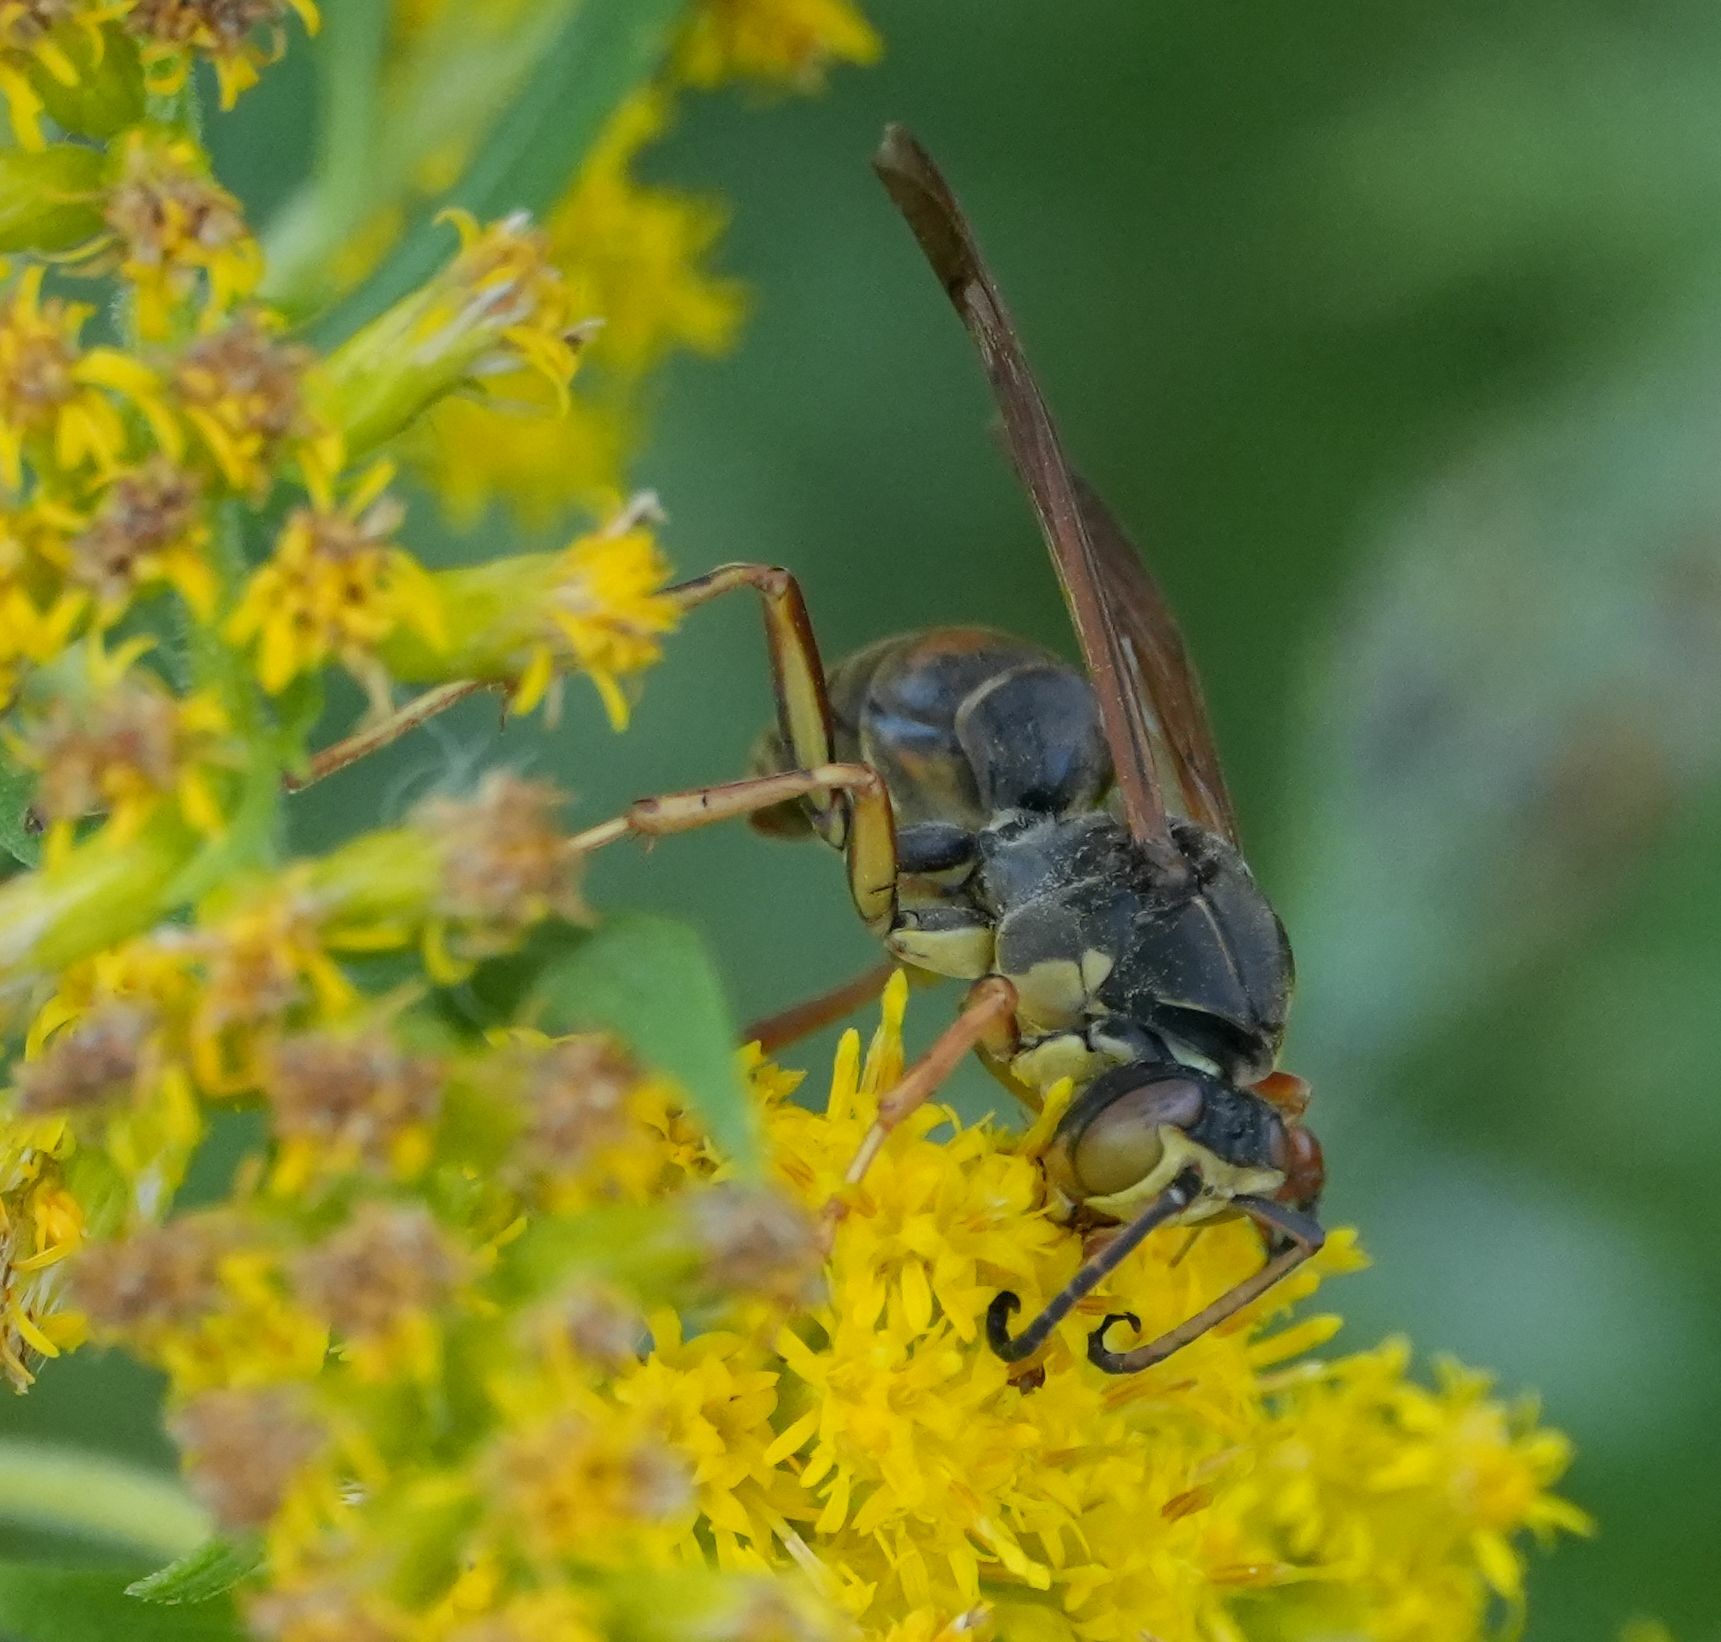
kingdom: Animalia
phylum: Arthropoda
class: Insecta
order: Hymenoptera
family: Eumenidae
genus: Polistes
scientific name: Polistes fuscatus
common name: Dark paper wasp
